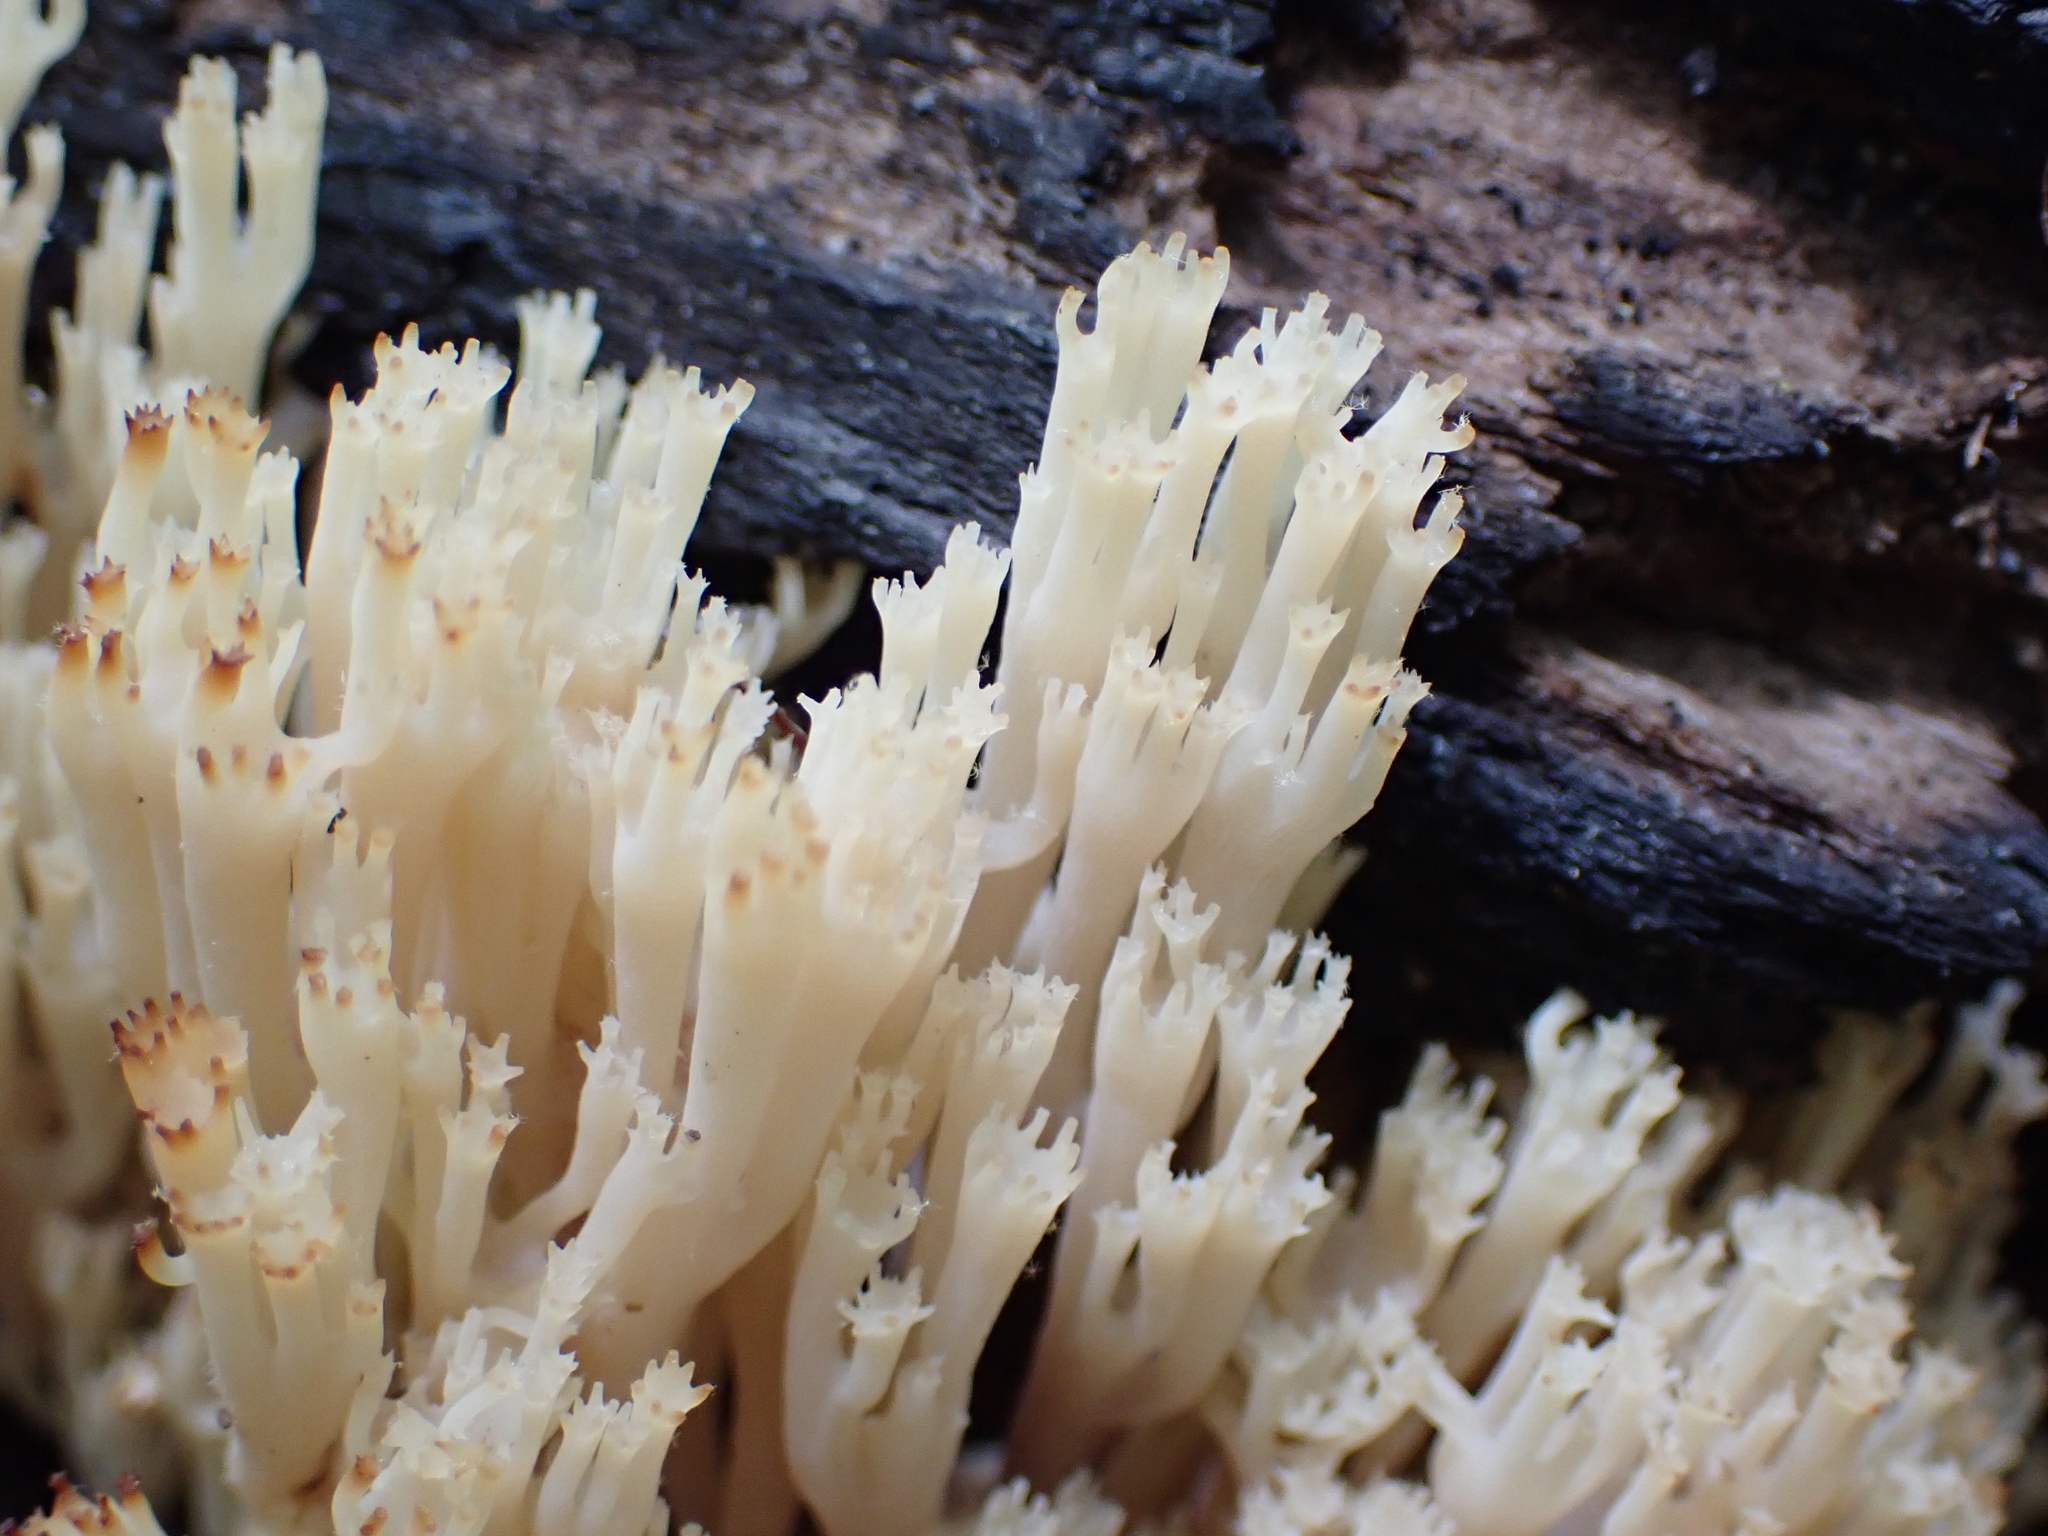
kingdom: Fungi
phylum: Basidiomycota
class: Agaricomycetes
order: Russulales
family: Auriscalpiaceae
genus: Artomyces
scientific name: Artomyces pyxidatus
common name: Crown-tipped coral fungus
